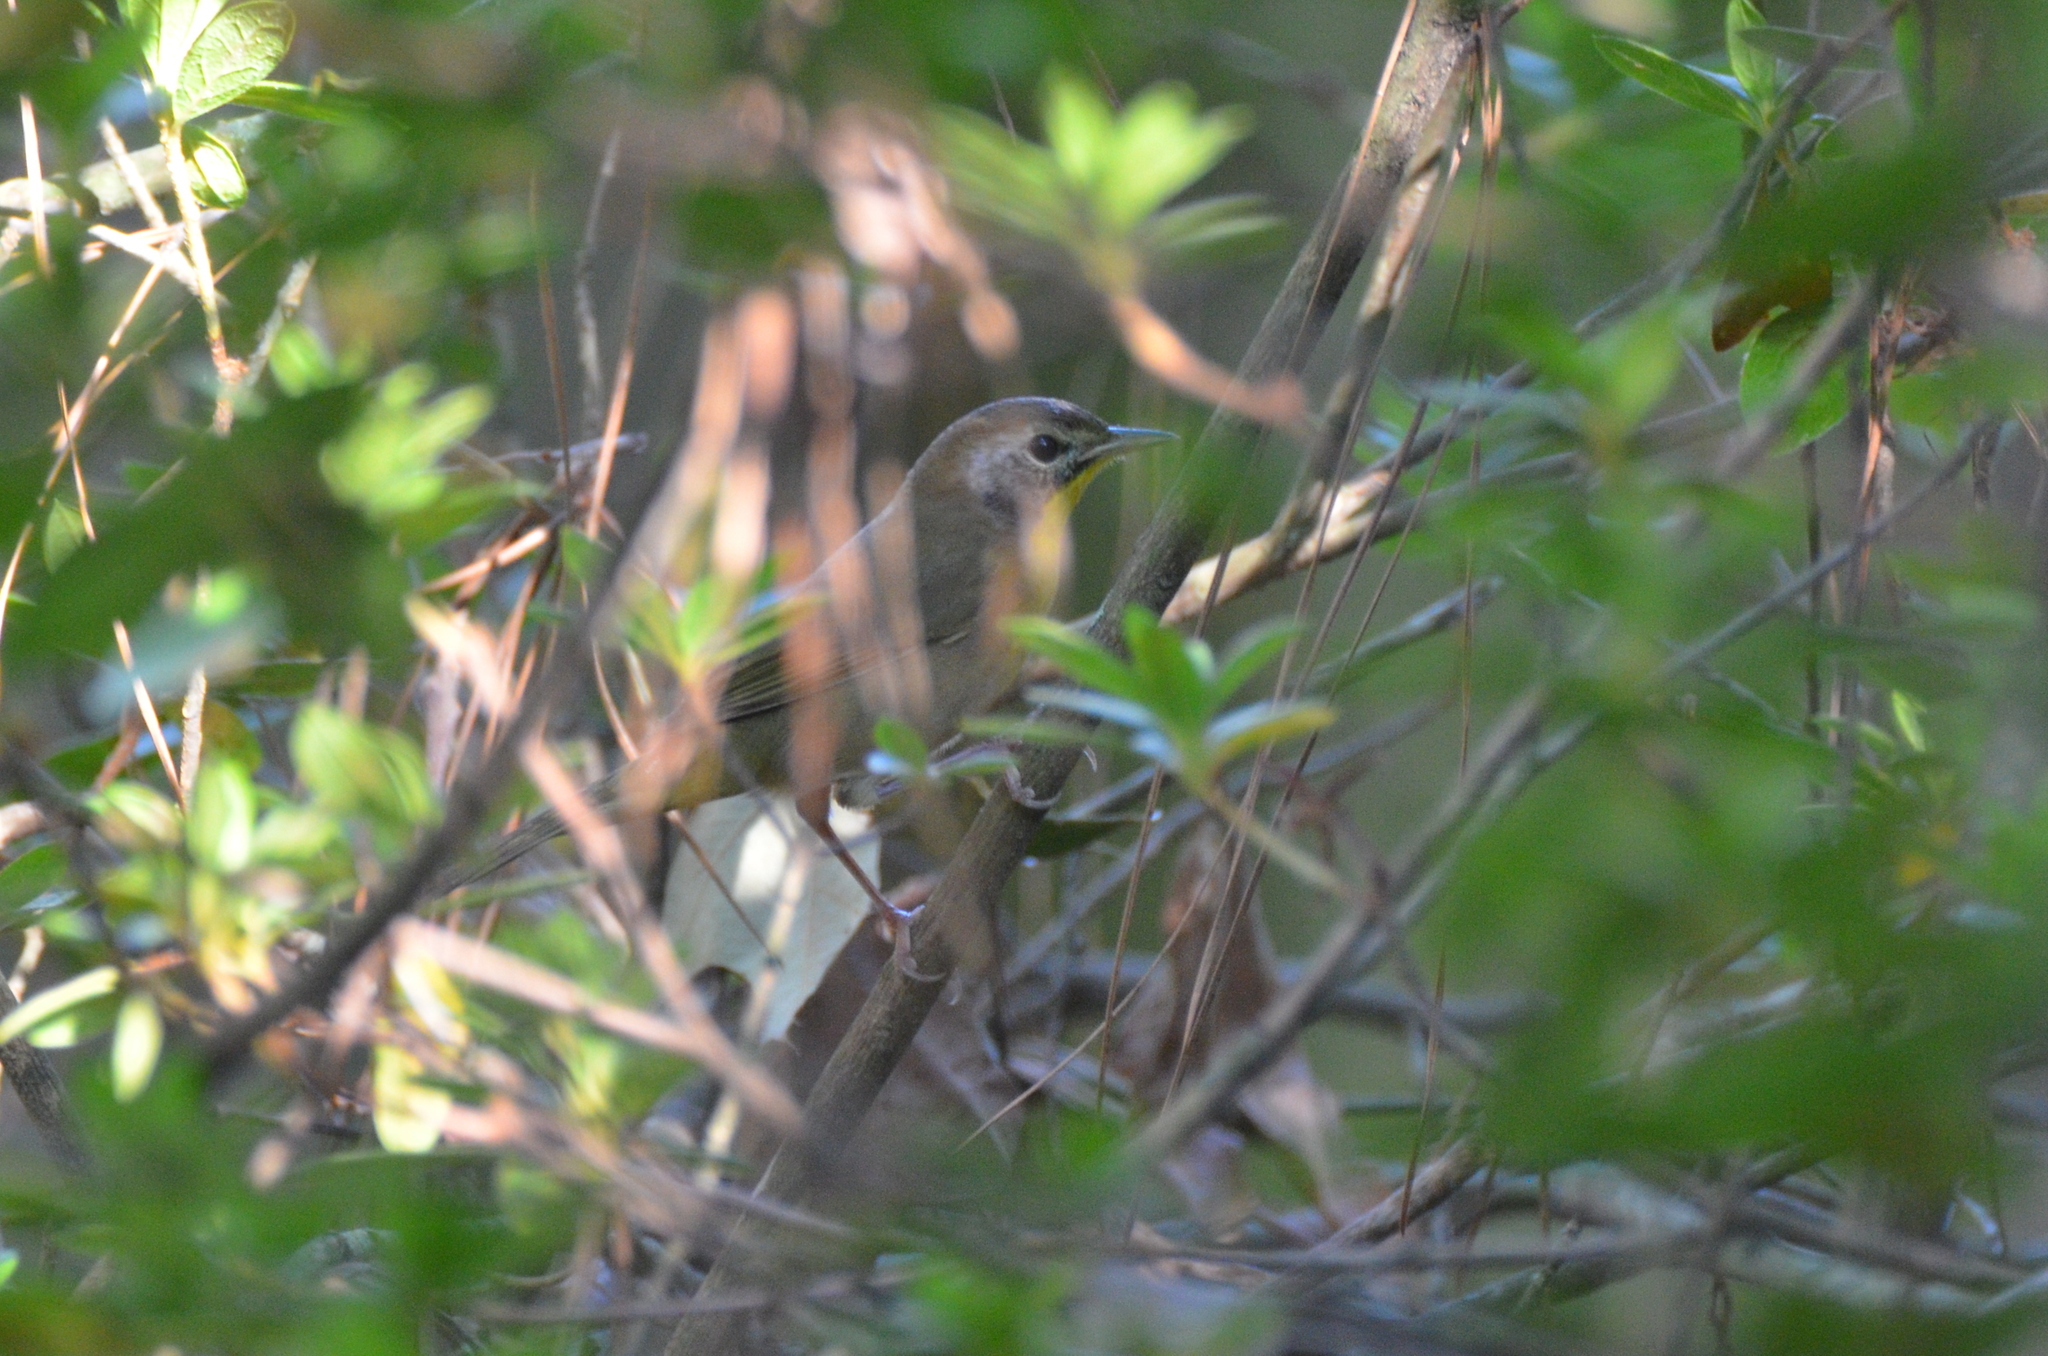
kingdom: Animalia
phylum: Chordata
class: Aves
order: Passeriformes
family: Parulidae
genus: Geothlypis
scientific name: Geothlypis trichas
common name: Common yellowthroat
